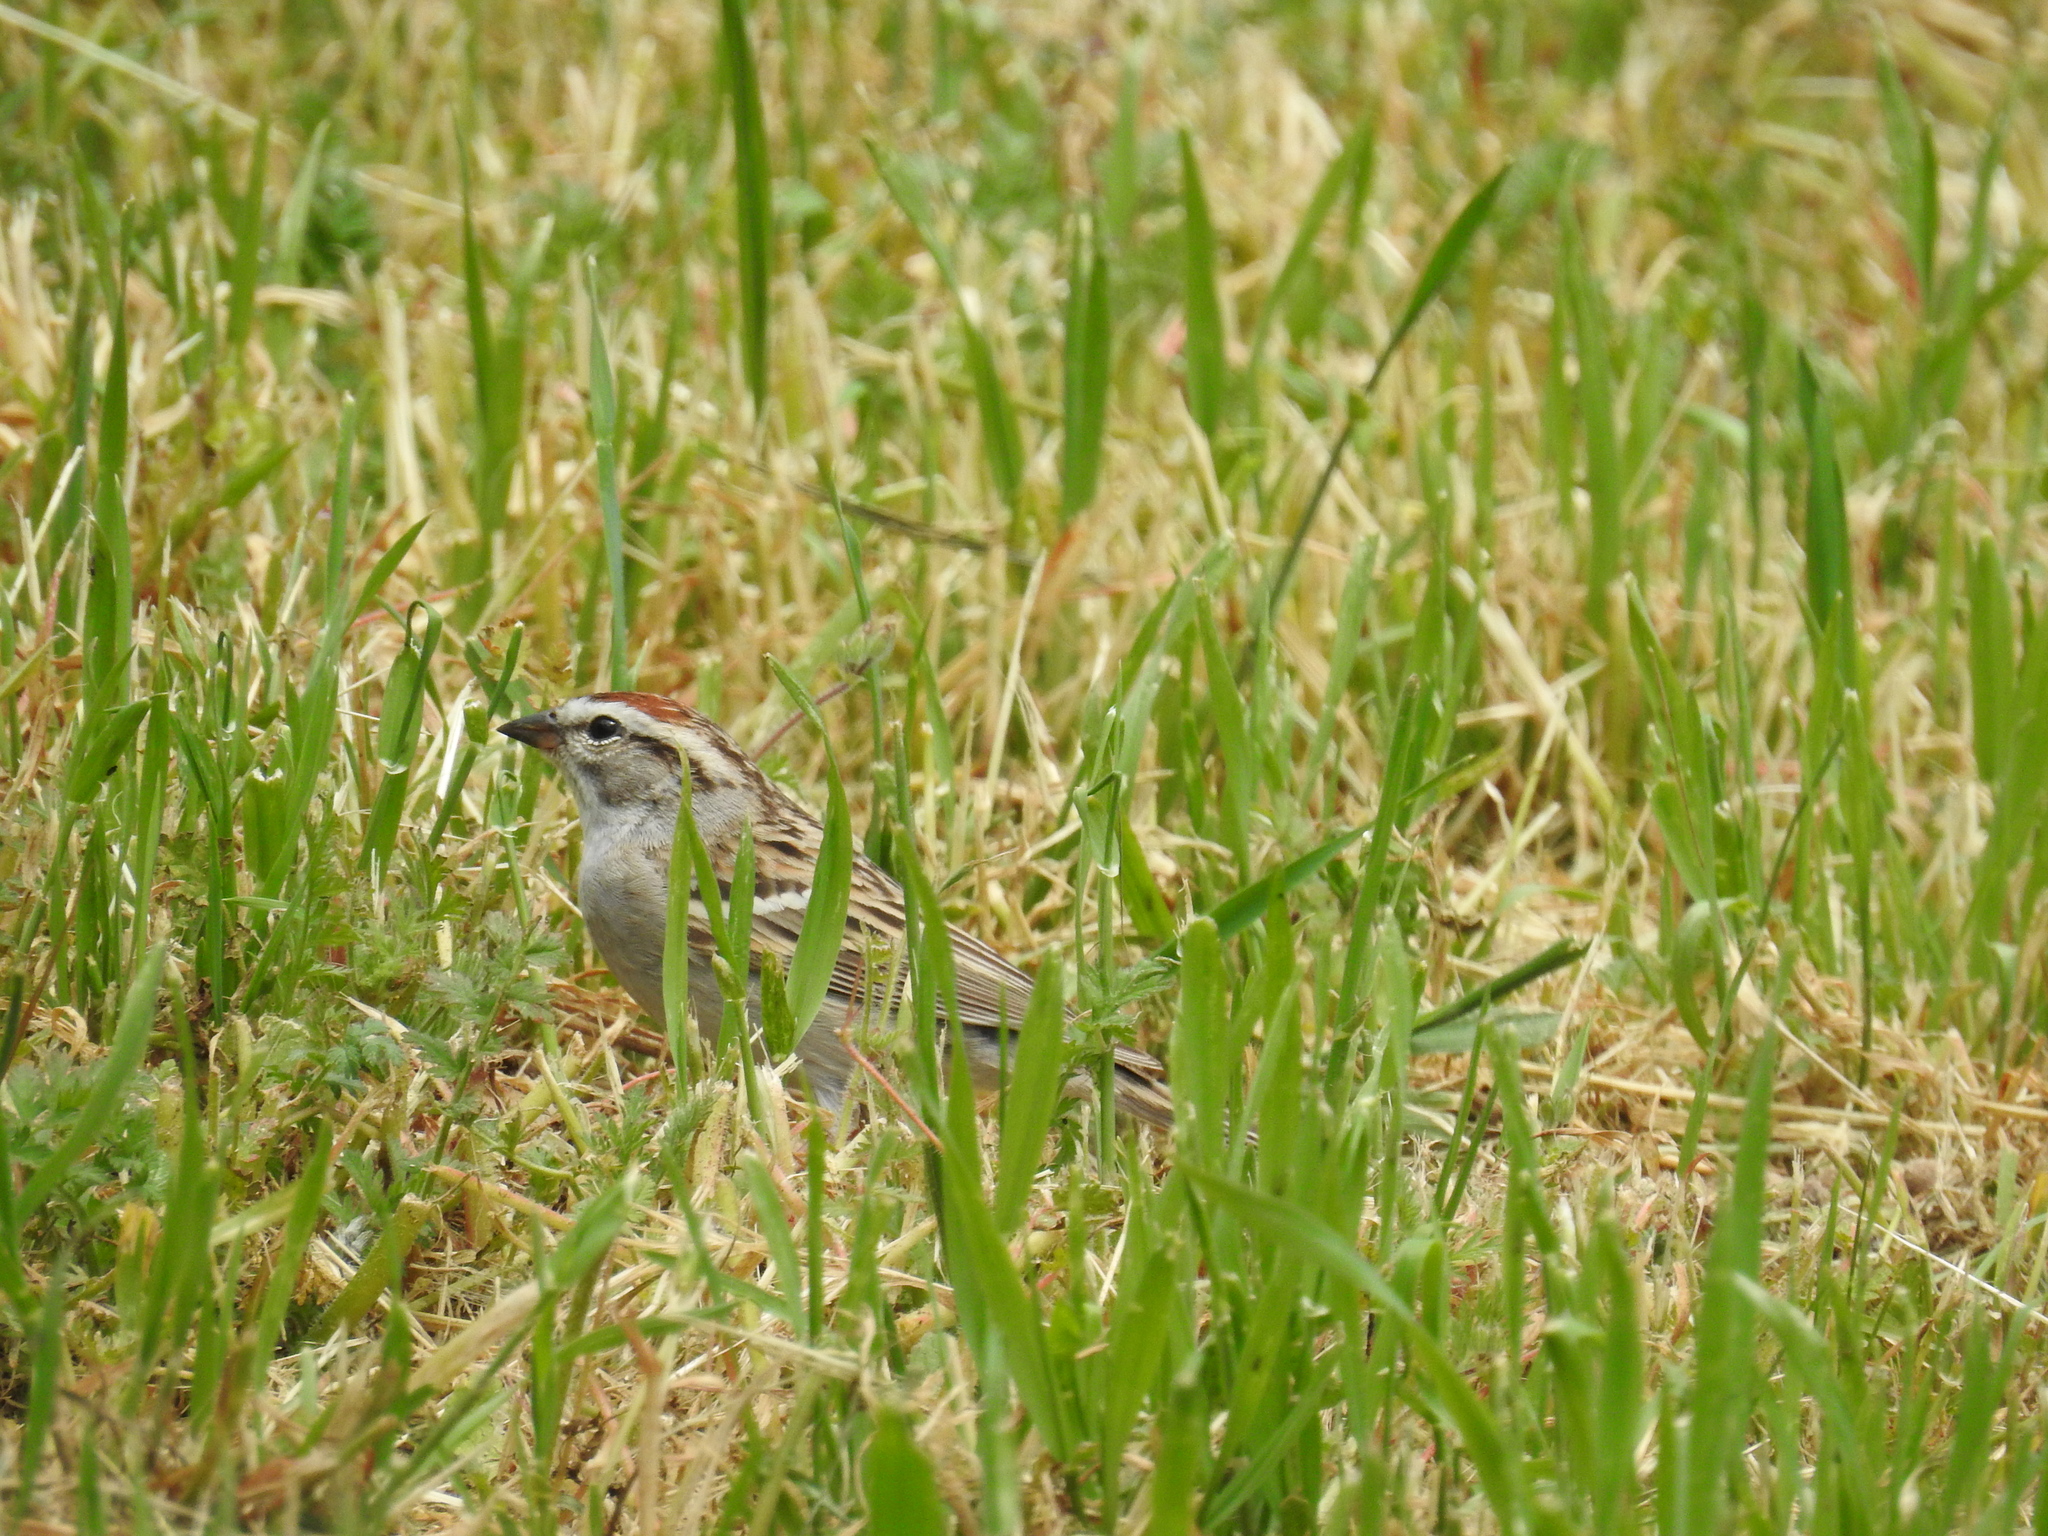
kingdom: Animalia
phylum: Chordata
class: Aves
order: Passeriformes
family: Passerellidae
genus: Spizella
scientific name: Spizella passerina
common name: Chipping sparrow
